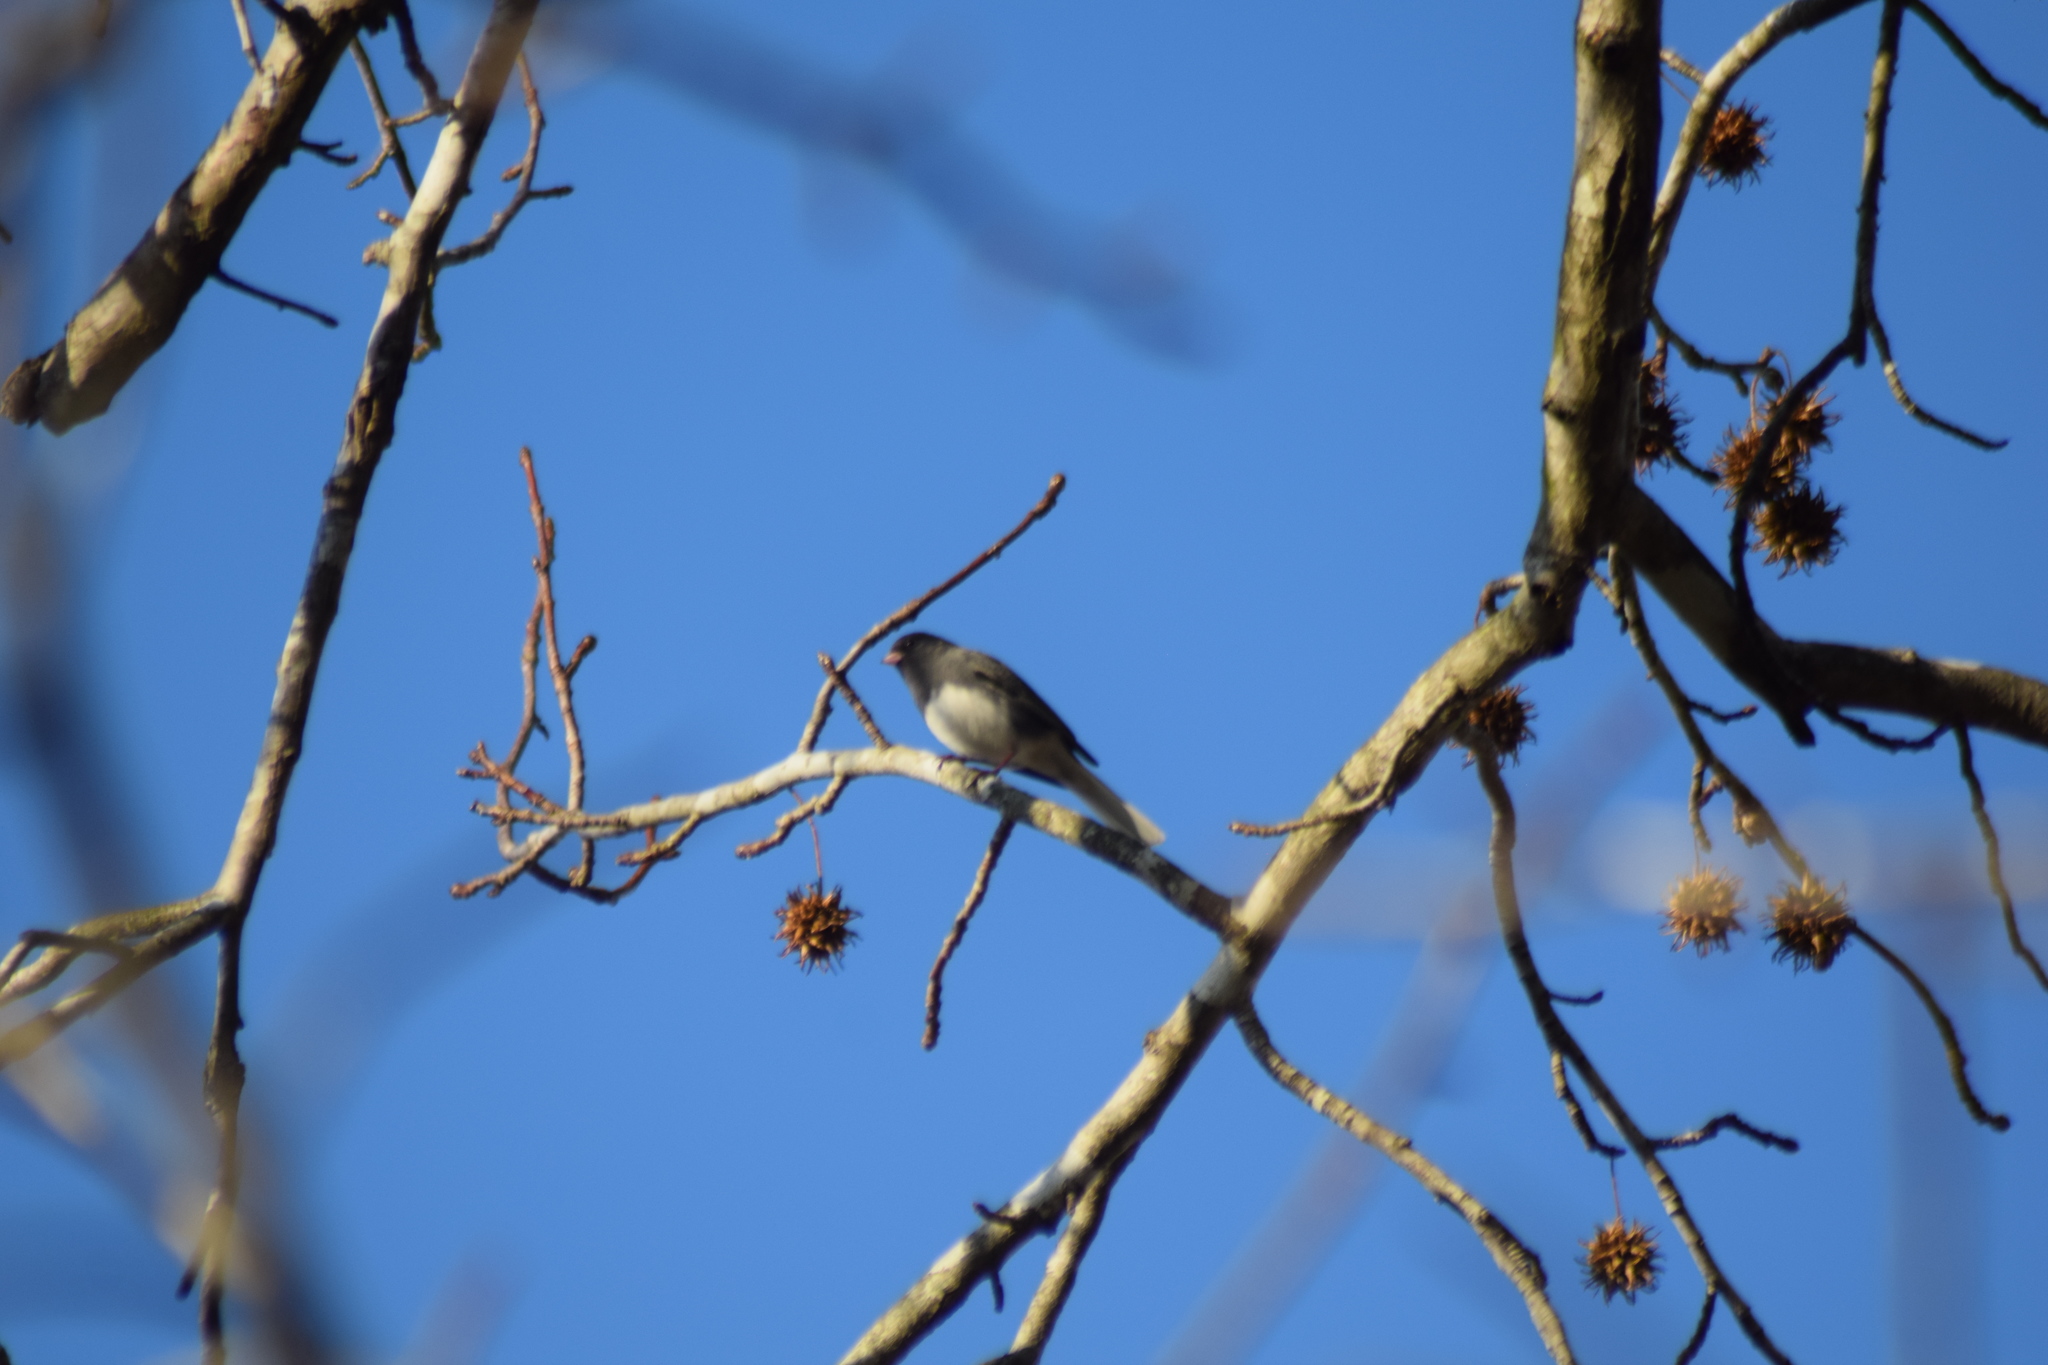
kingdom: Animalia
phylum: Chordata
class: Aves
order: Passeriformes
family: Passerellidae
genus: Junco
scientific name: Junco hyemalis
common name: Dark-eyed junco
